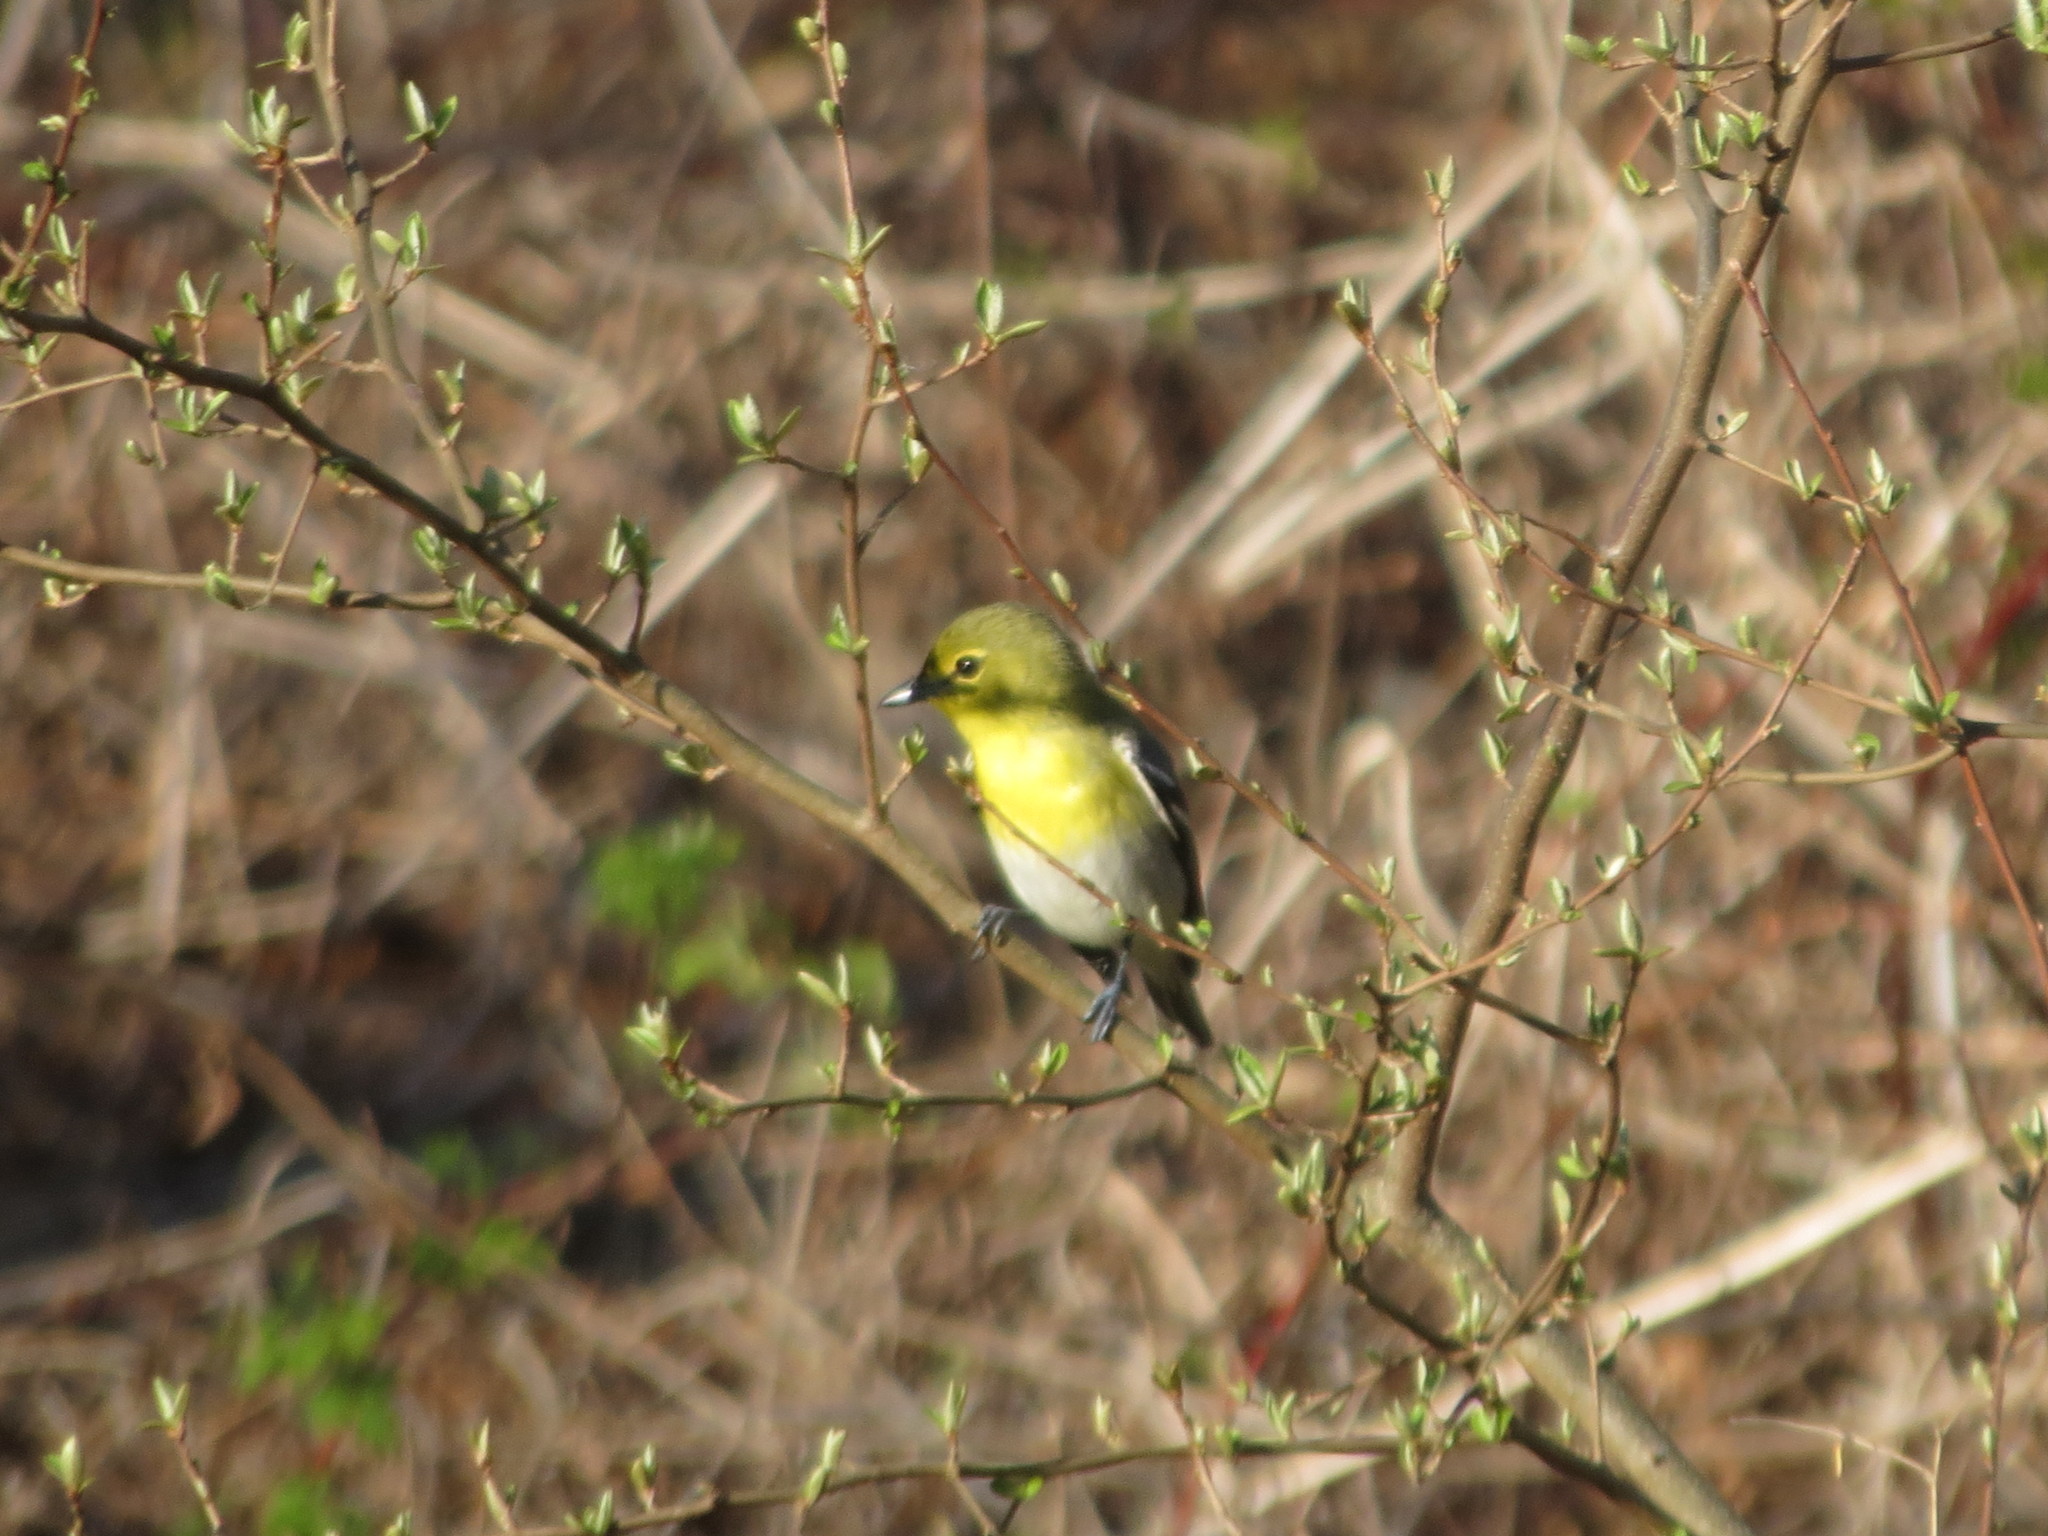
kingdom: Animalia
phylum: Chordata
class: Aves
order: Passeriformes
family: Vireonidae
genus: Vireo
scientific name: Vireo flavifrons
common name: Yellow-throated vireo
